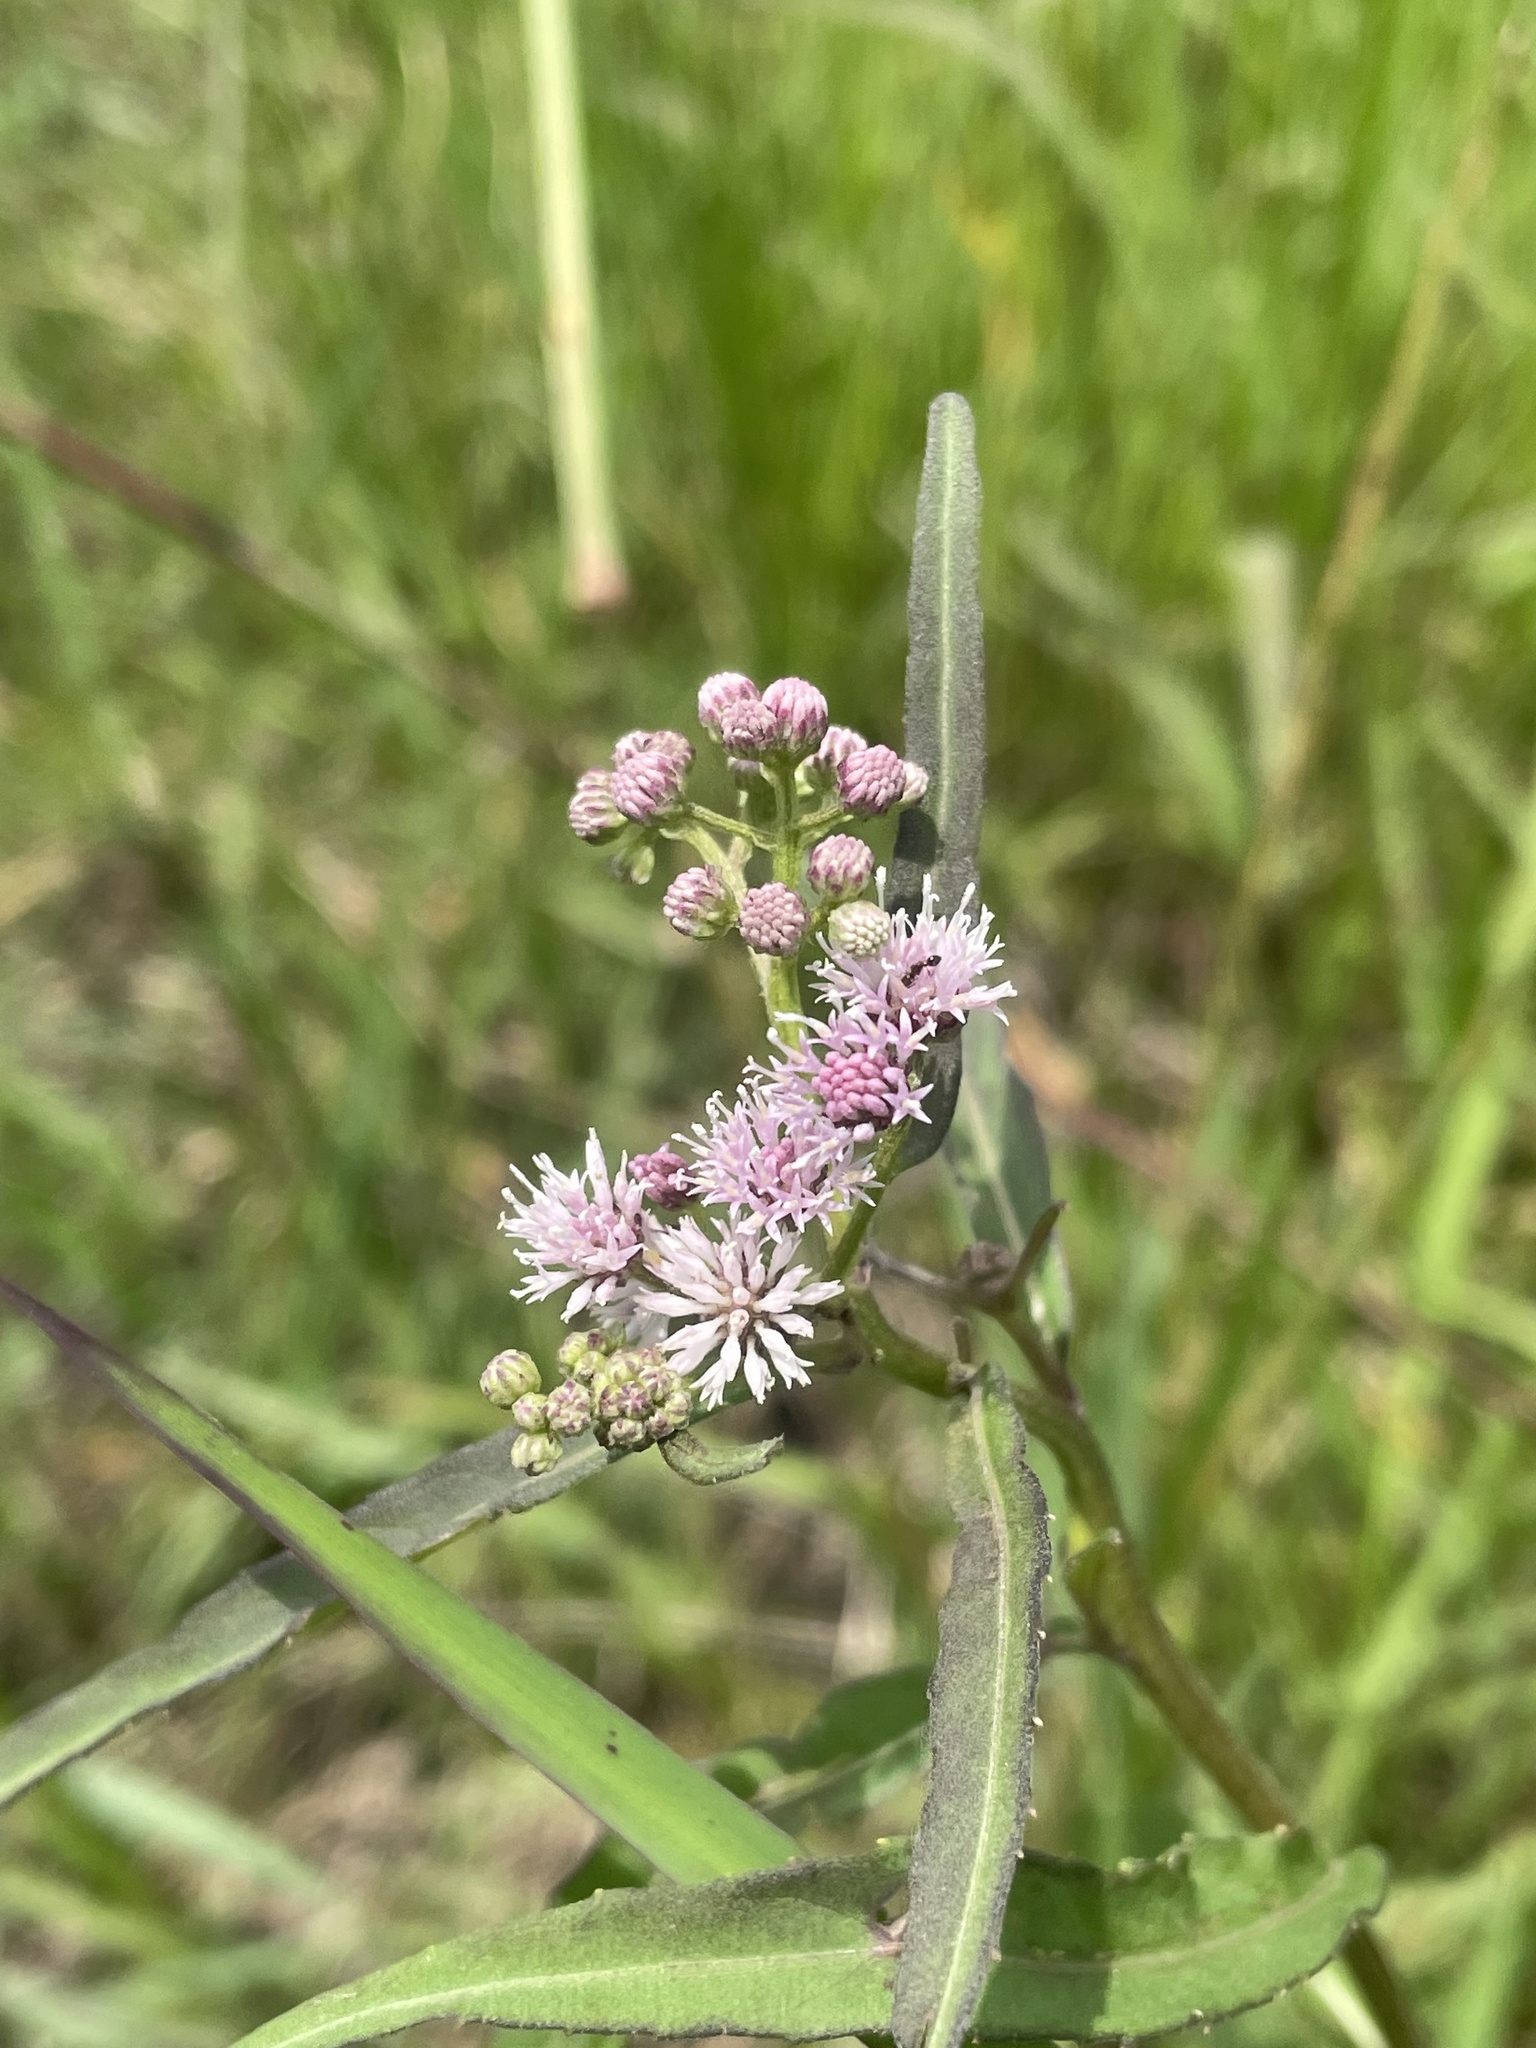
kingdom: Plantae
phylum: Tracheophyta
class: Magnoliopsida
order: Asterales
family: Asteraceae
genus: Ethulia
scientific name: Ethulia conyzoides
